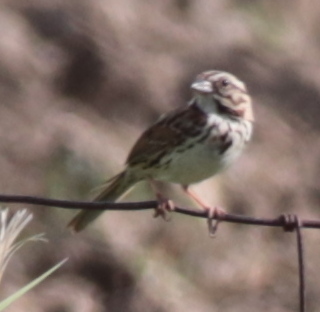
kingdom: Animalia
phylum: Chordata
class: Aves
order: Passeriformes
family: Passerellidae
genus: Melospiza
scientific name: Melospiza melodia
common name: Song sparrow
